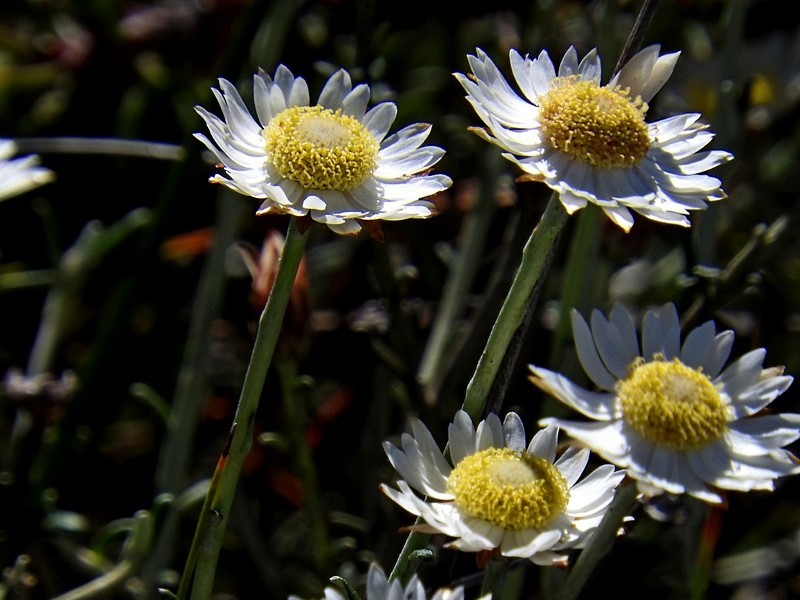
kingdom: Plantae
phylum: Tracheophyta
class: Magnoliopsida
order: Asterales
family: Asteraceae
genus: Argentipallium
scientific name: Argentipallium obtusifolium
